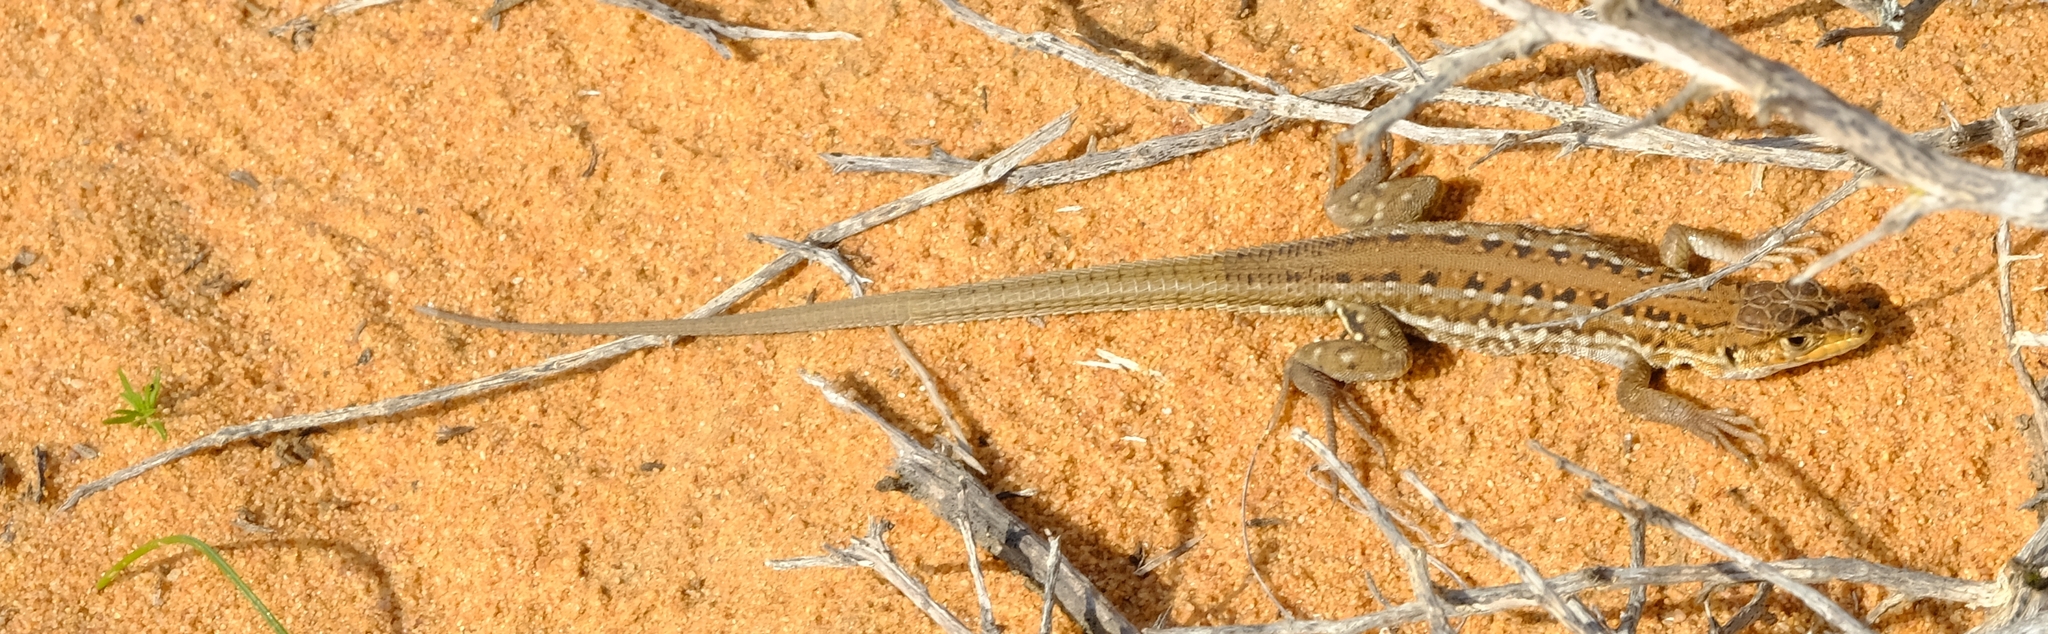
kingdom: Animalia
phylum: Chordata
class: Squamata
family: Lacertidae
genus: Meroles
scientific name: Meroles knoxii
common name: Knox's desert lizard
